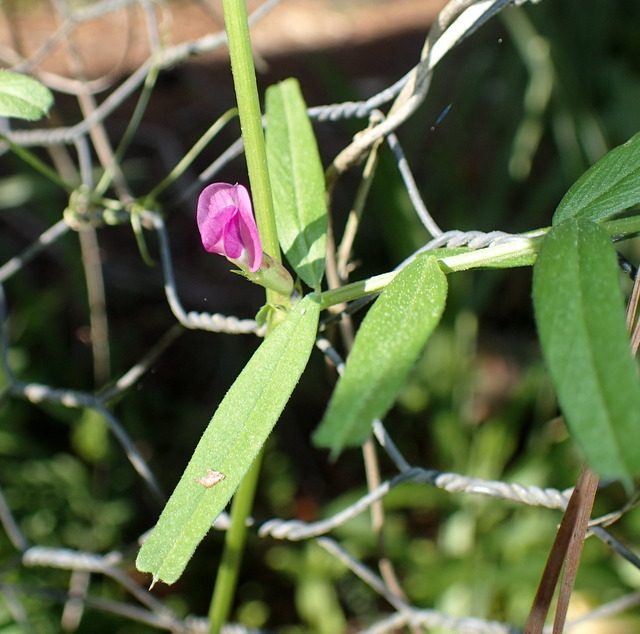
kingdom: Plantae
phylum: Tracheophyta
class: Magnoliopsida
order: Fabales
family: Fabaceae
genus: Vicia
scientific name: Vicia sativa
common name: Garden vetch
